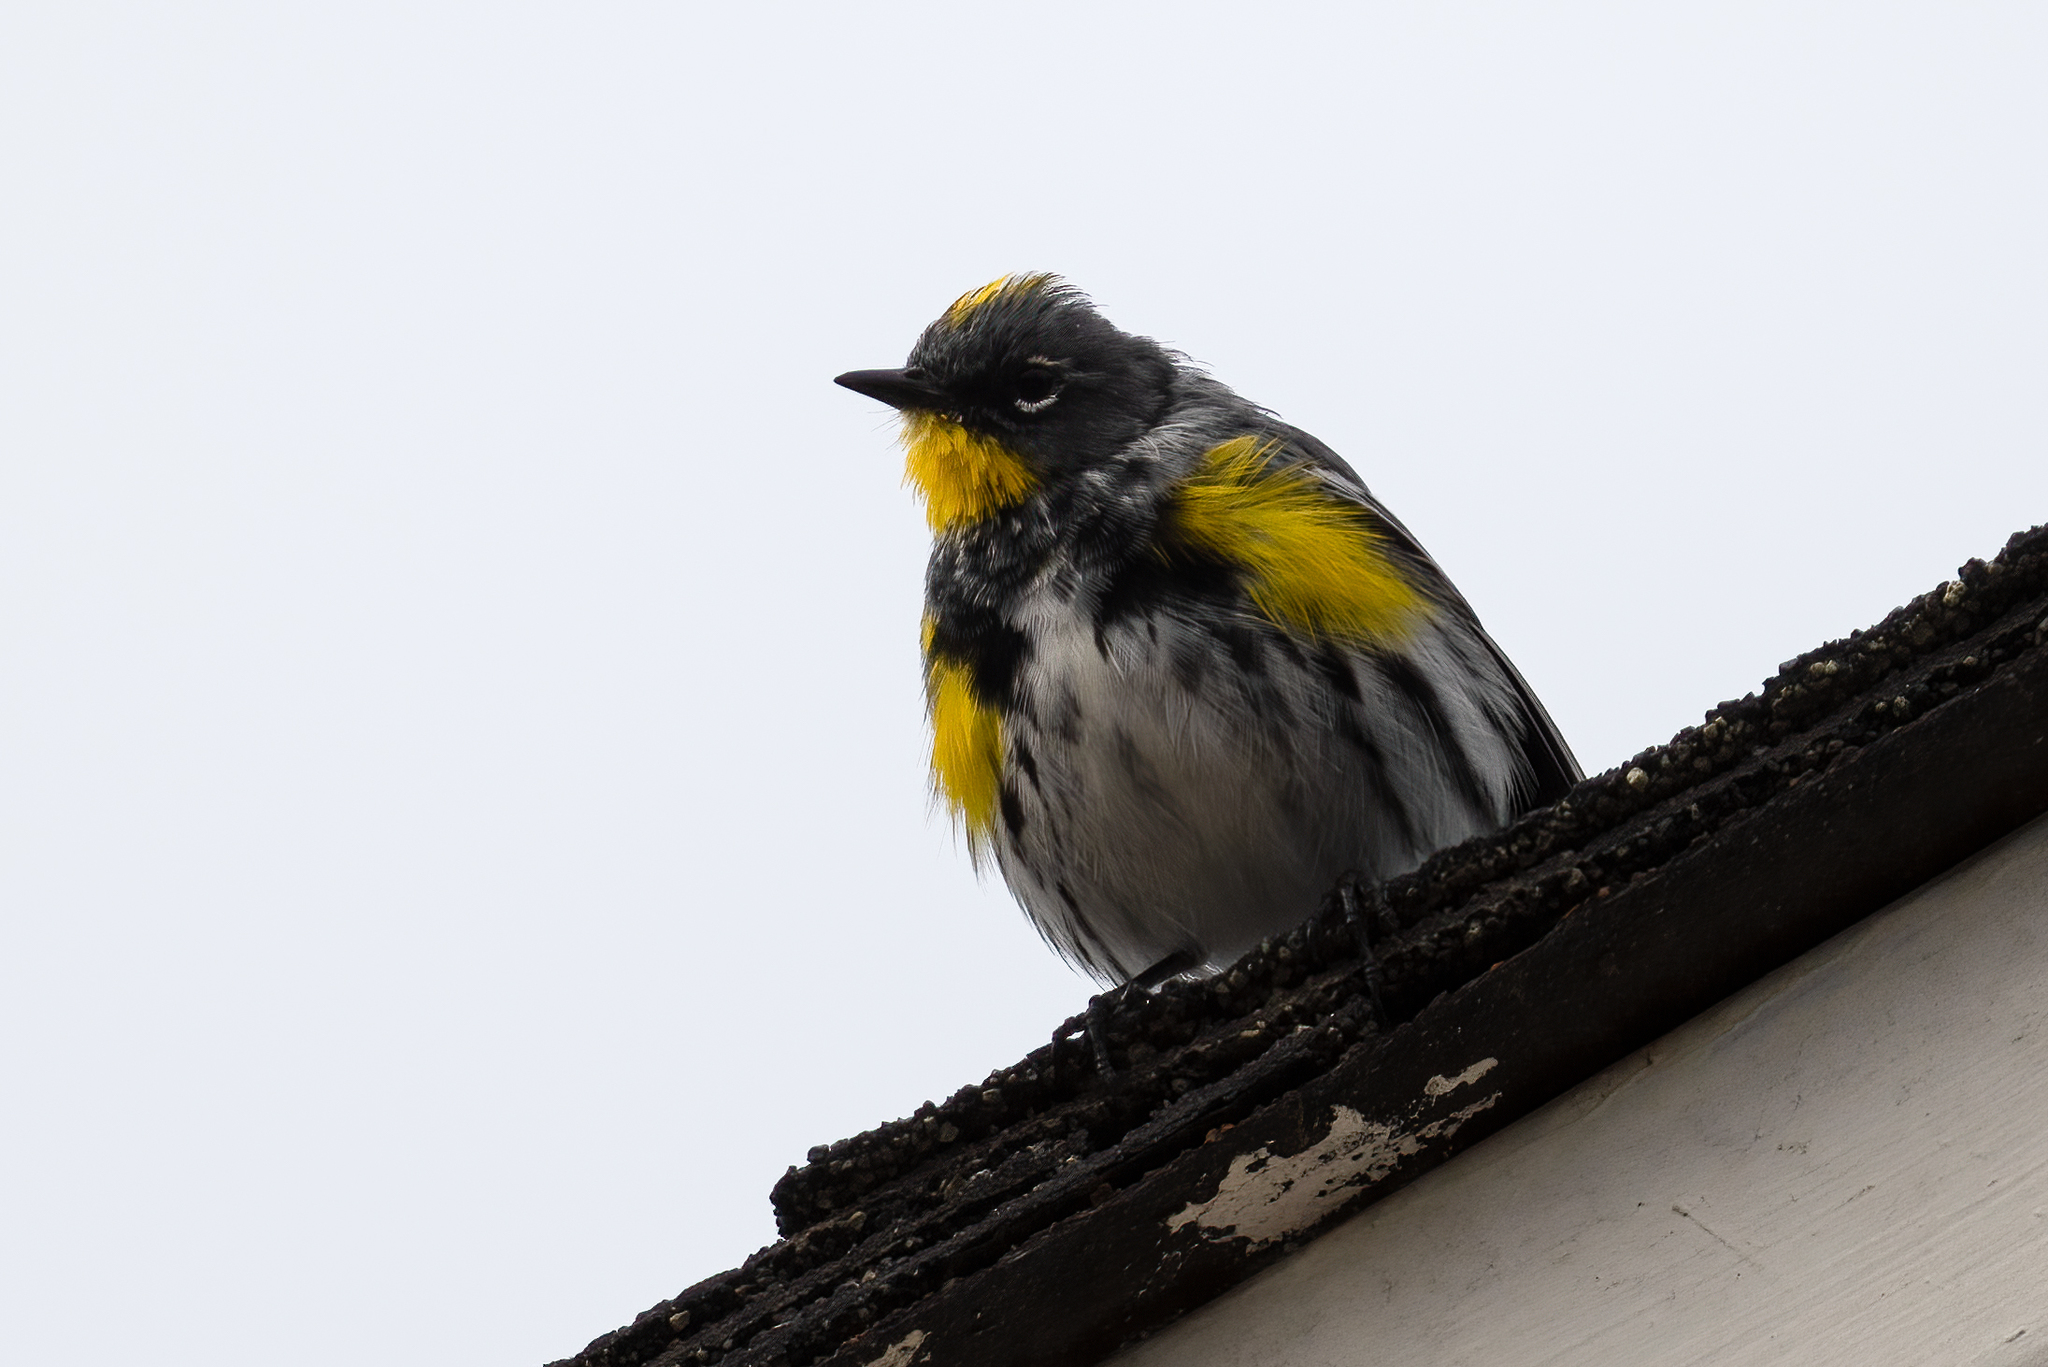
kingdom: Animalia
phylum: Chordata
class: Aves
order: Passeriformes
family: Parulidae
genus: Setophaga
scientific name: Setophaga auduboni
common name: Audubon's warbler
